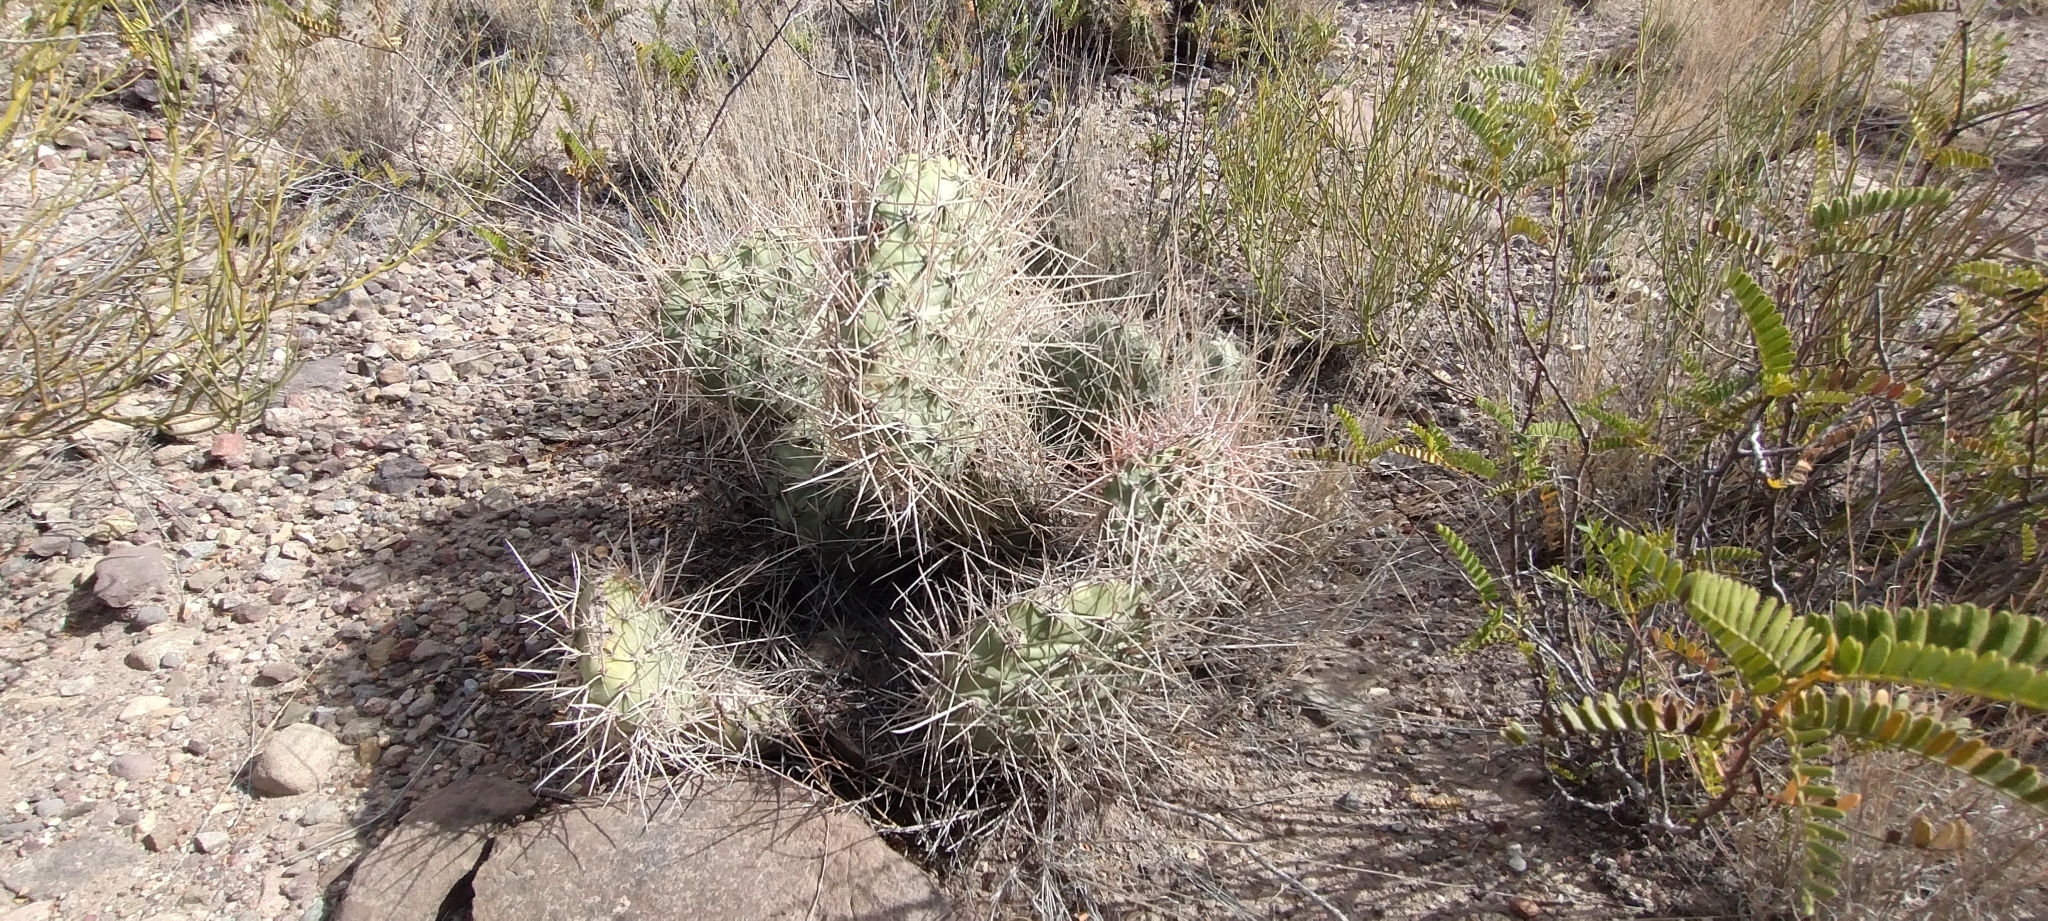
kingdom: Plantae
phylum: Tracheophyta
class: Magnoliopsida
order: Caryophyllales
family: Cactaceae
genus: Opuntia
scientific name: Opuntia sulphurea
